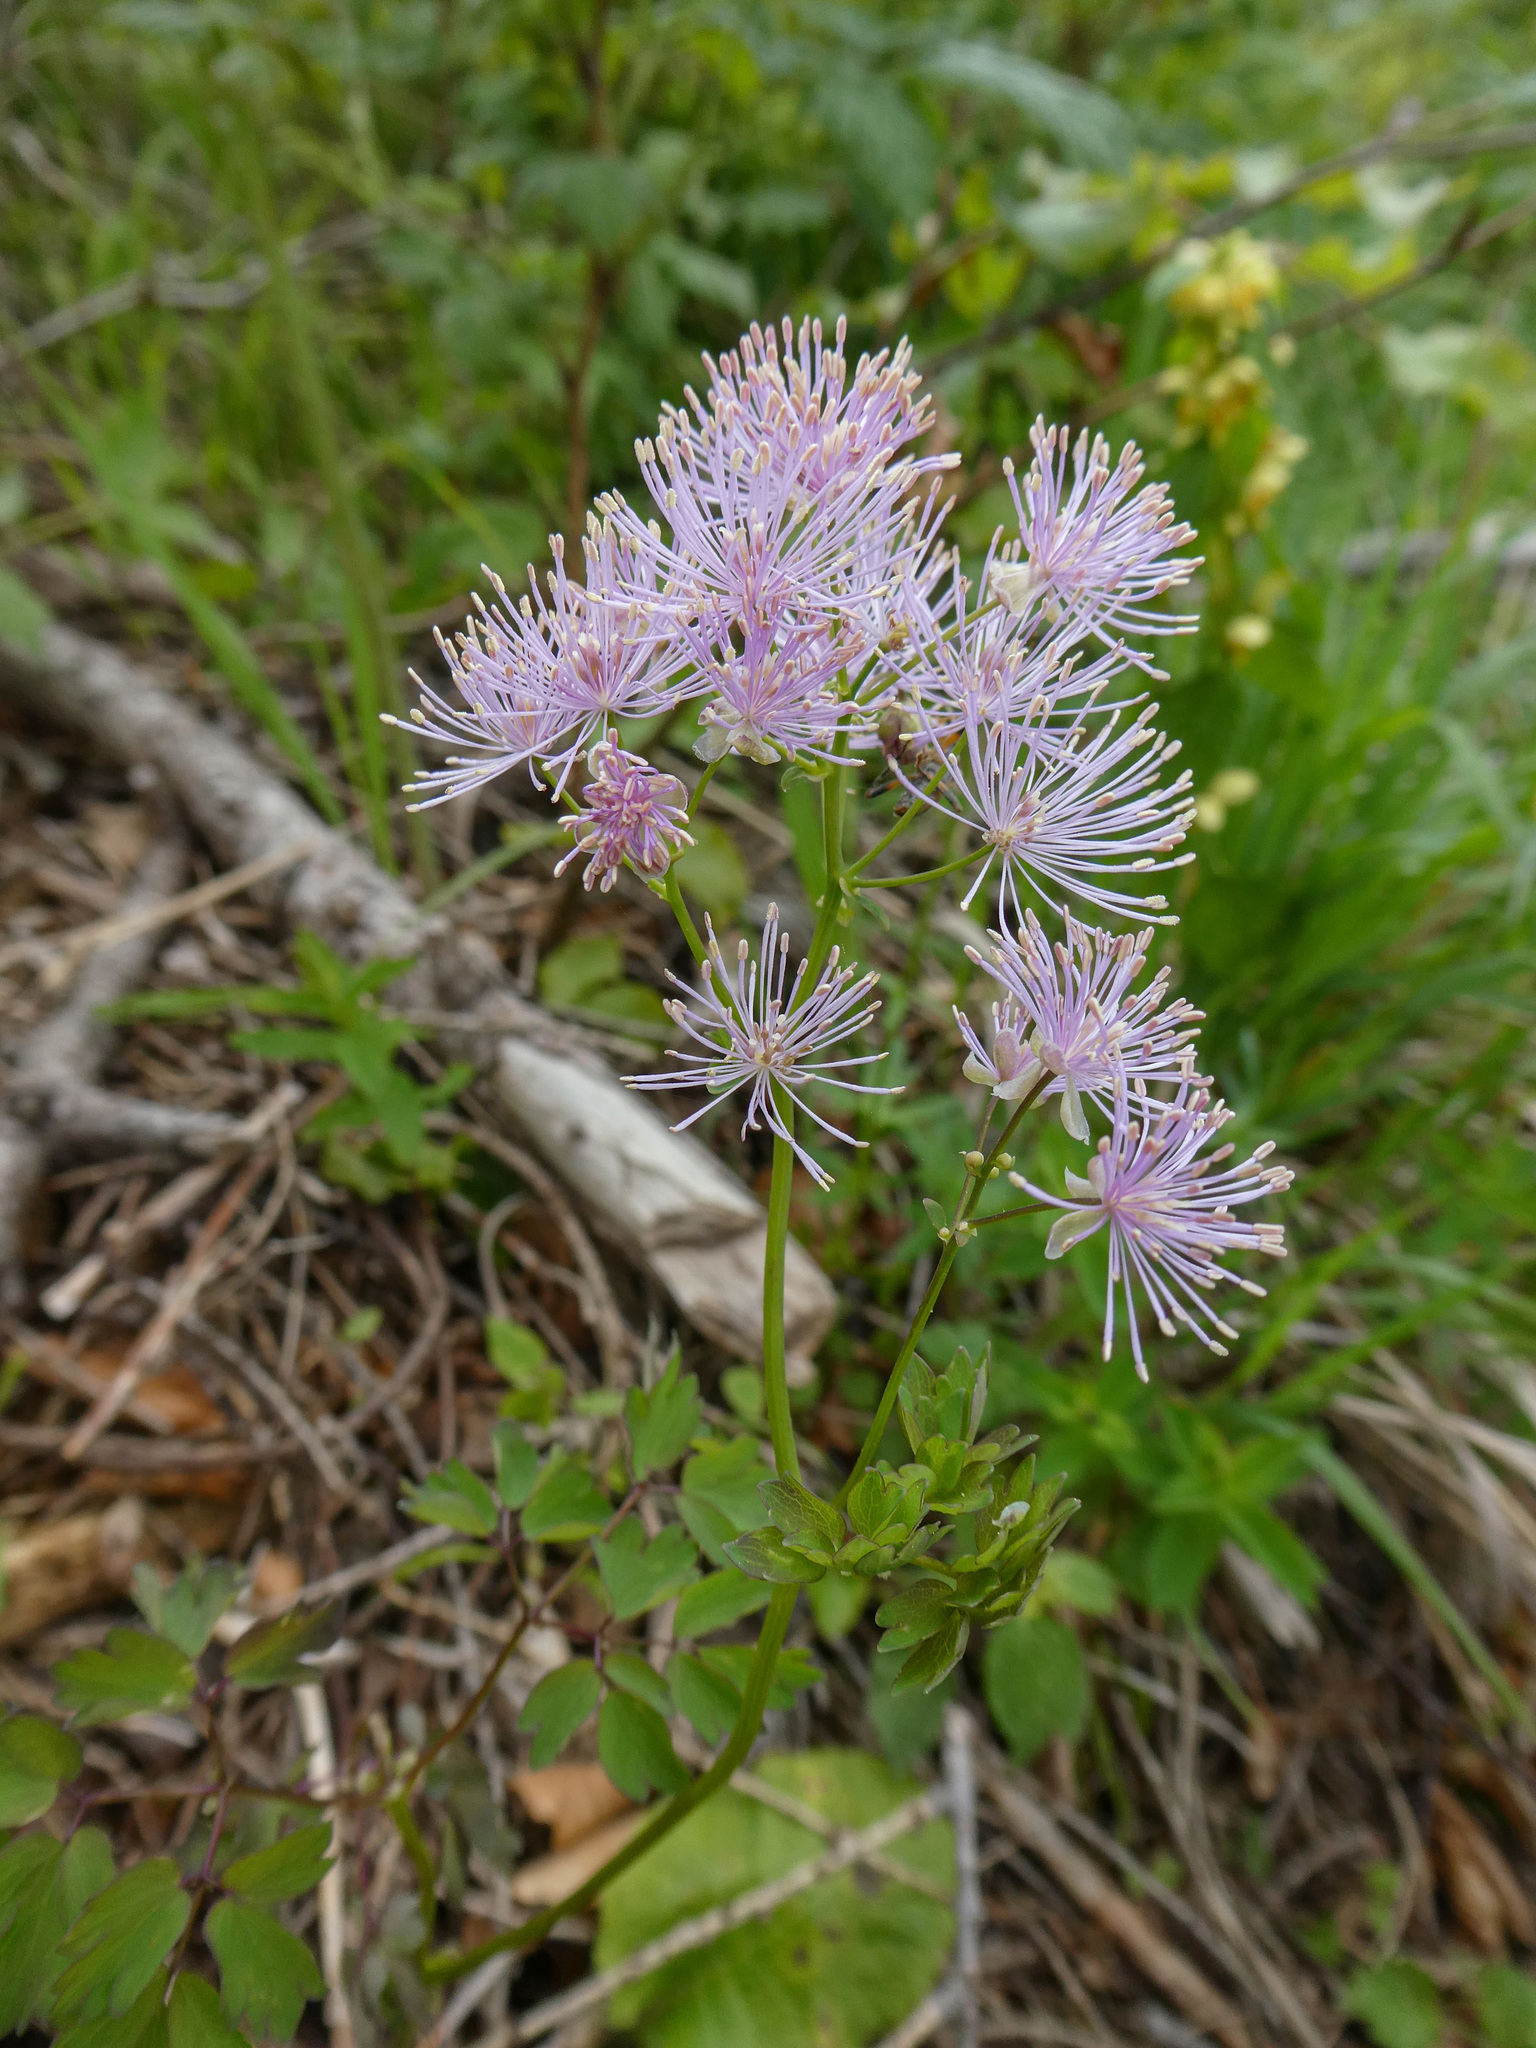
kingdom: Plantae
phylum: Tracheophyta
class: Magnoliopsida
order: Ranunculales
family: Ranunculaceae
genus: Thalictrum
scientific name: Thalictrum aquilegiifolium
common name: French meadow-rue
